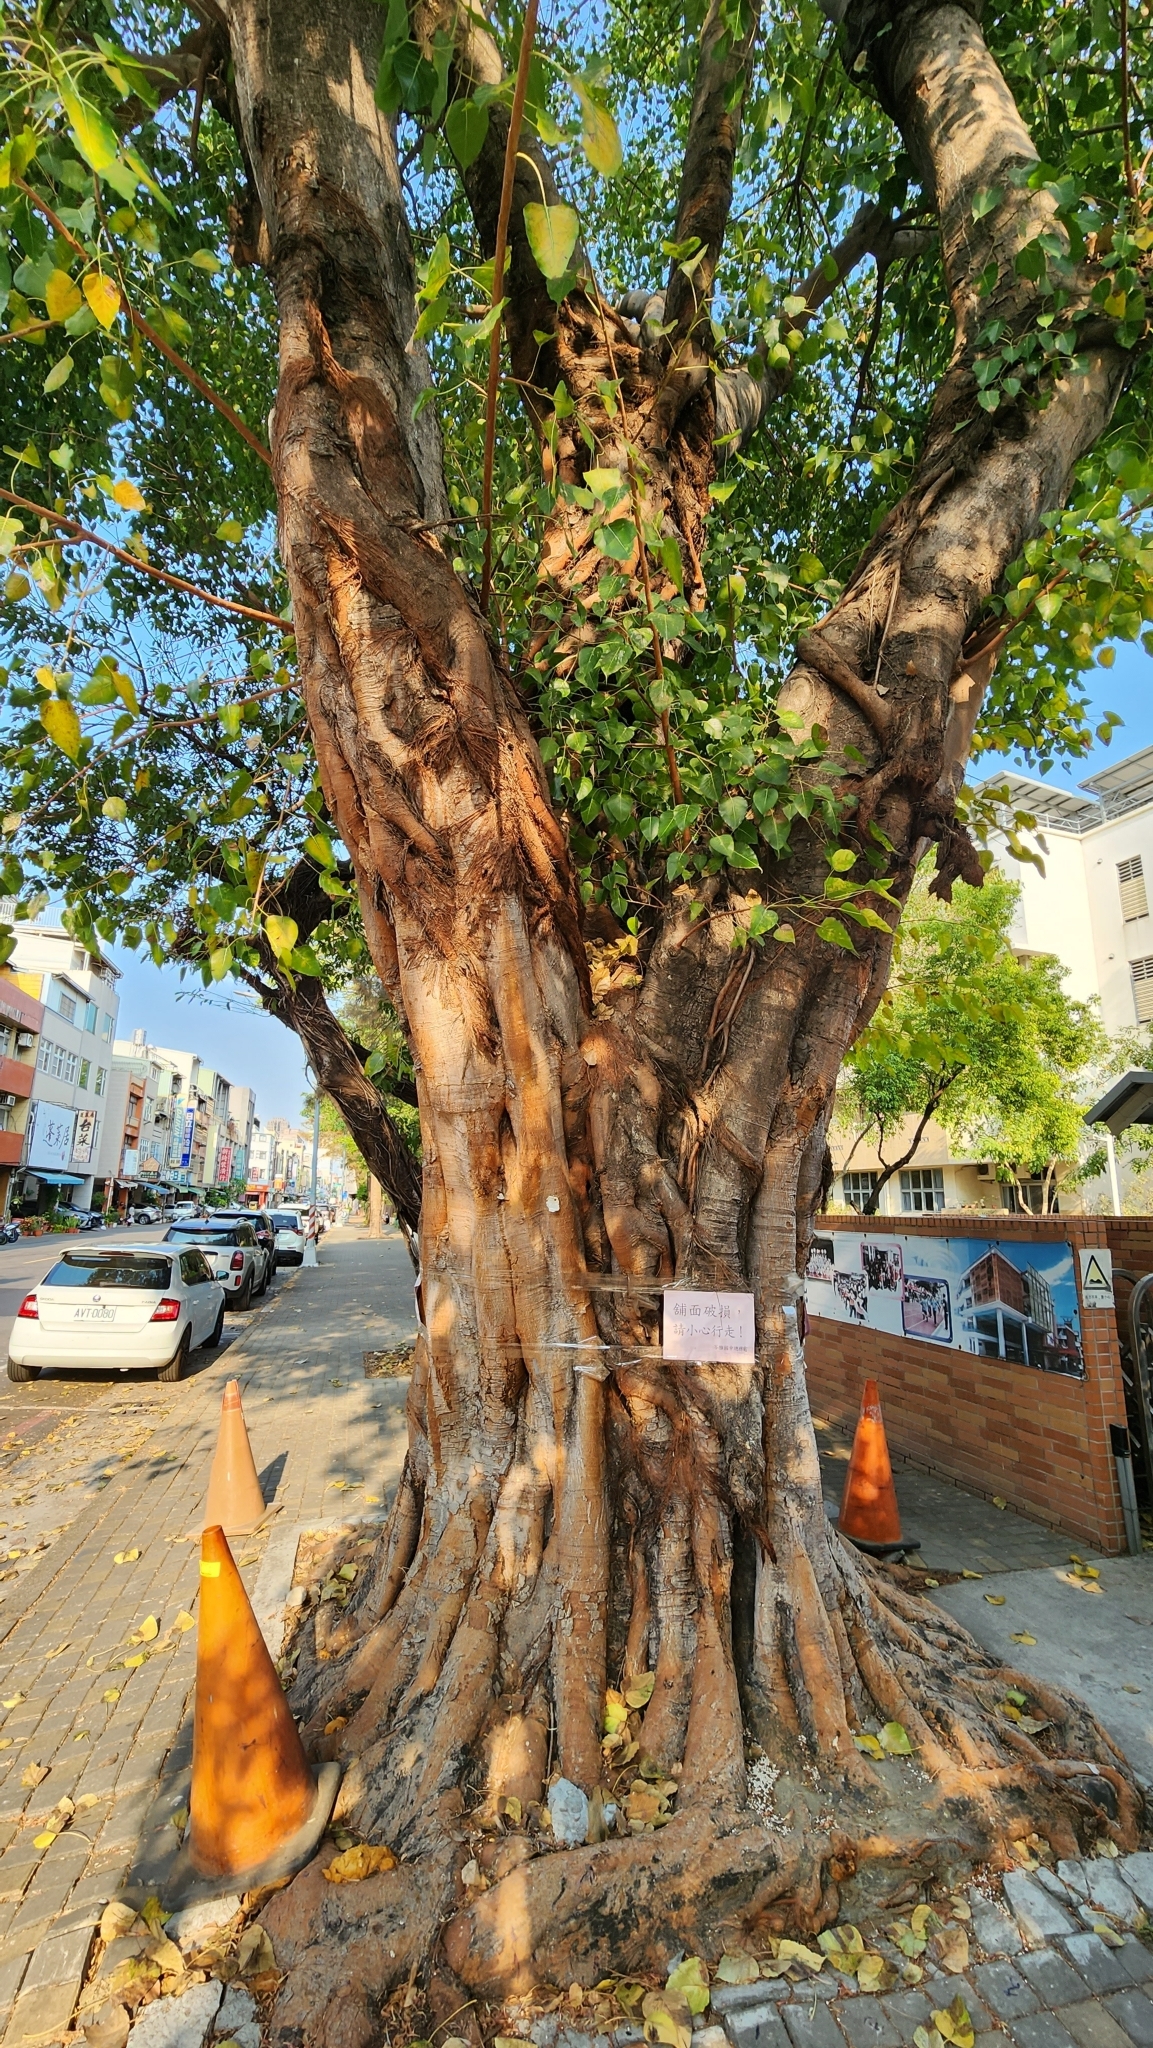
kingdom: Plantae
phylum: Tracheophyta
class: Magnoliopsida
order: Rosales
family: Moraceae
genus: Ficus
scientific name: Ficus religiosa
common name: Bodhi tree
